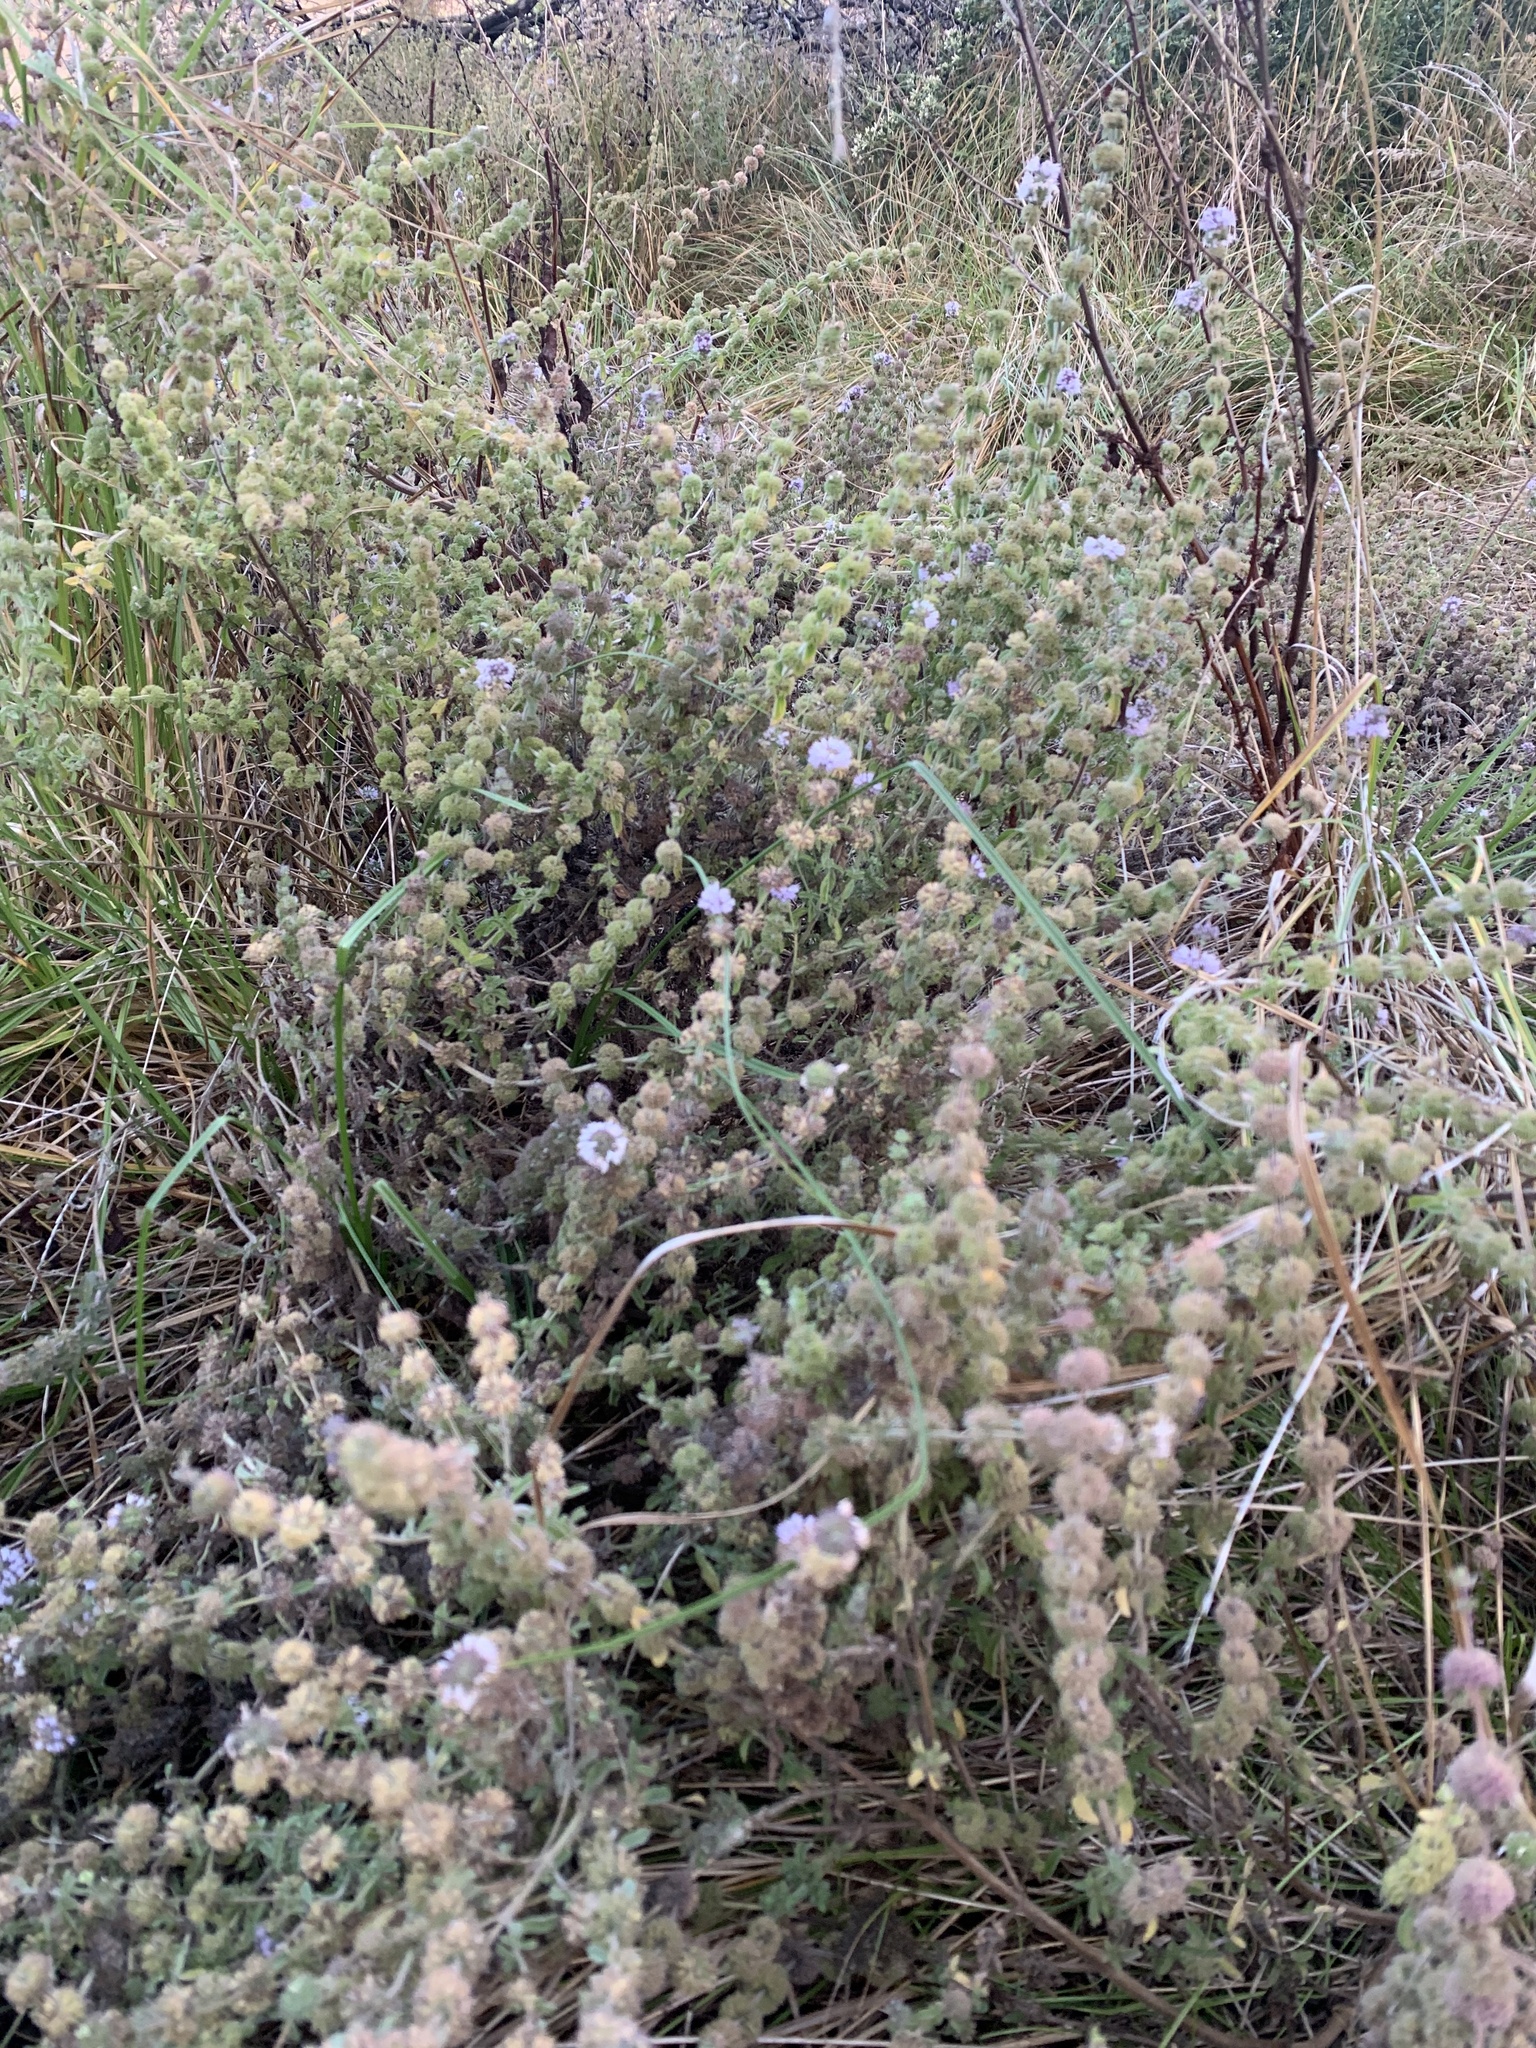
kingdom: Plantae
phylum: Tracheophyta
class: Magnoliopsida
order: Lamiales
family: Lamiaceae
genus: Mentha
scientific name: Mentha pulegium
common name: Pennyroyal
